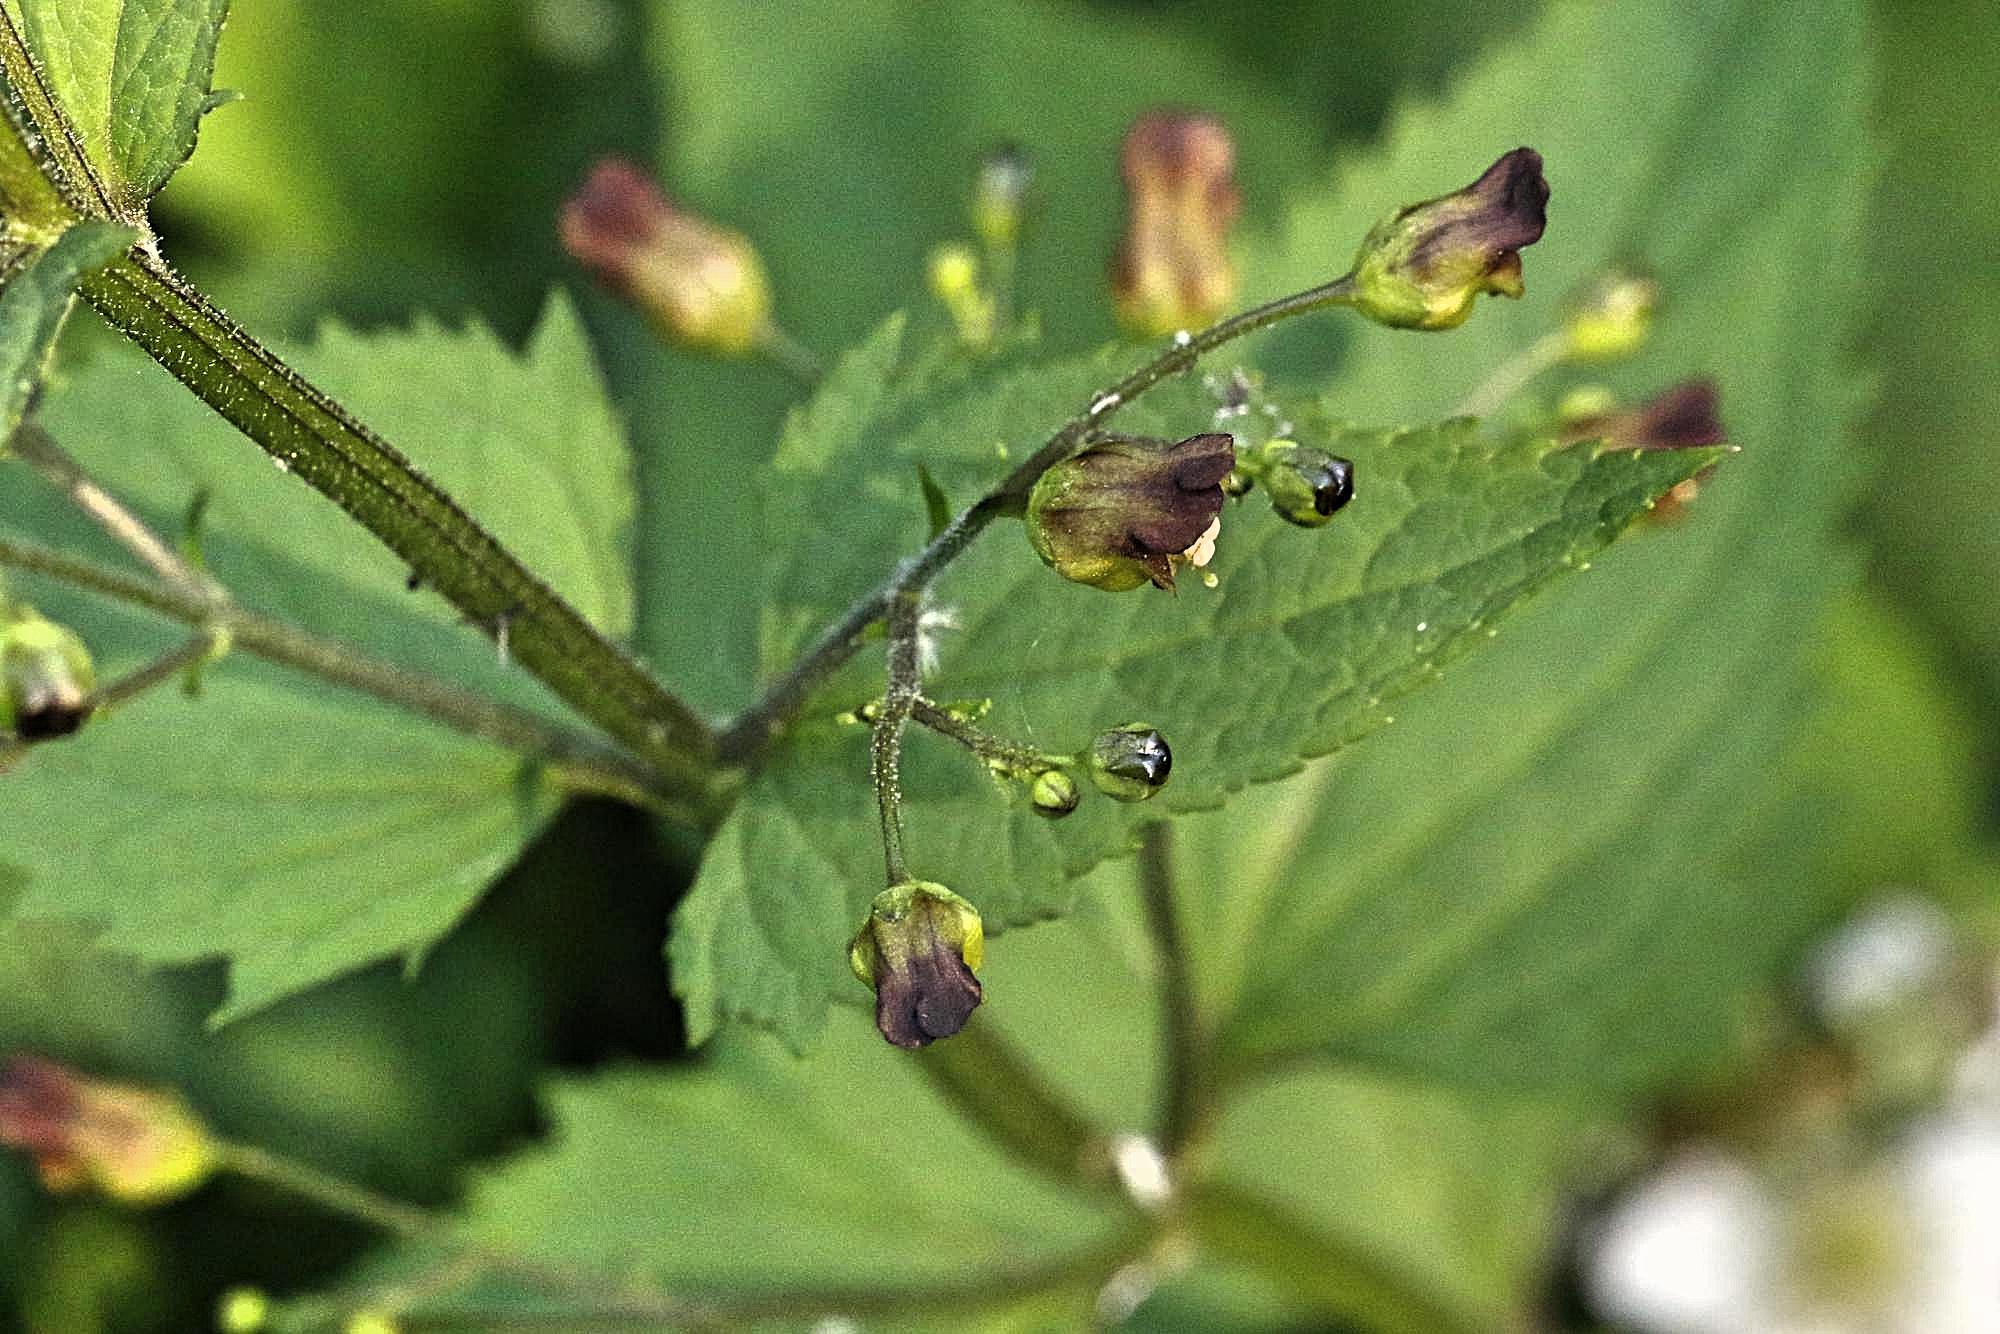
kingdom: Plantae
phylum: Tracheophyta
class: Magnoliopsida
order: Lamiales
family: Scrophulariaceae
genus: Scrophularia
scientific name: Scrophularia nodosa
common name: Common figwort
